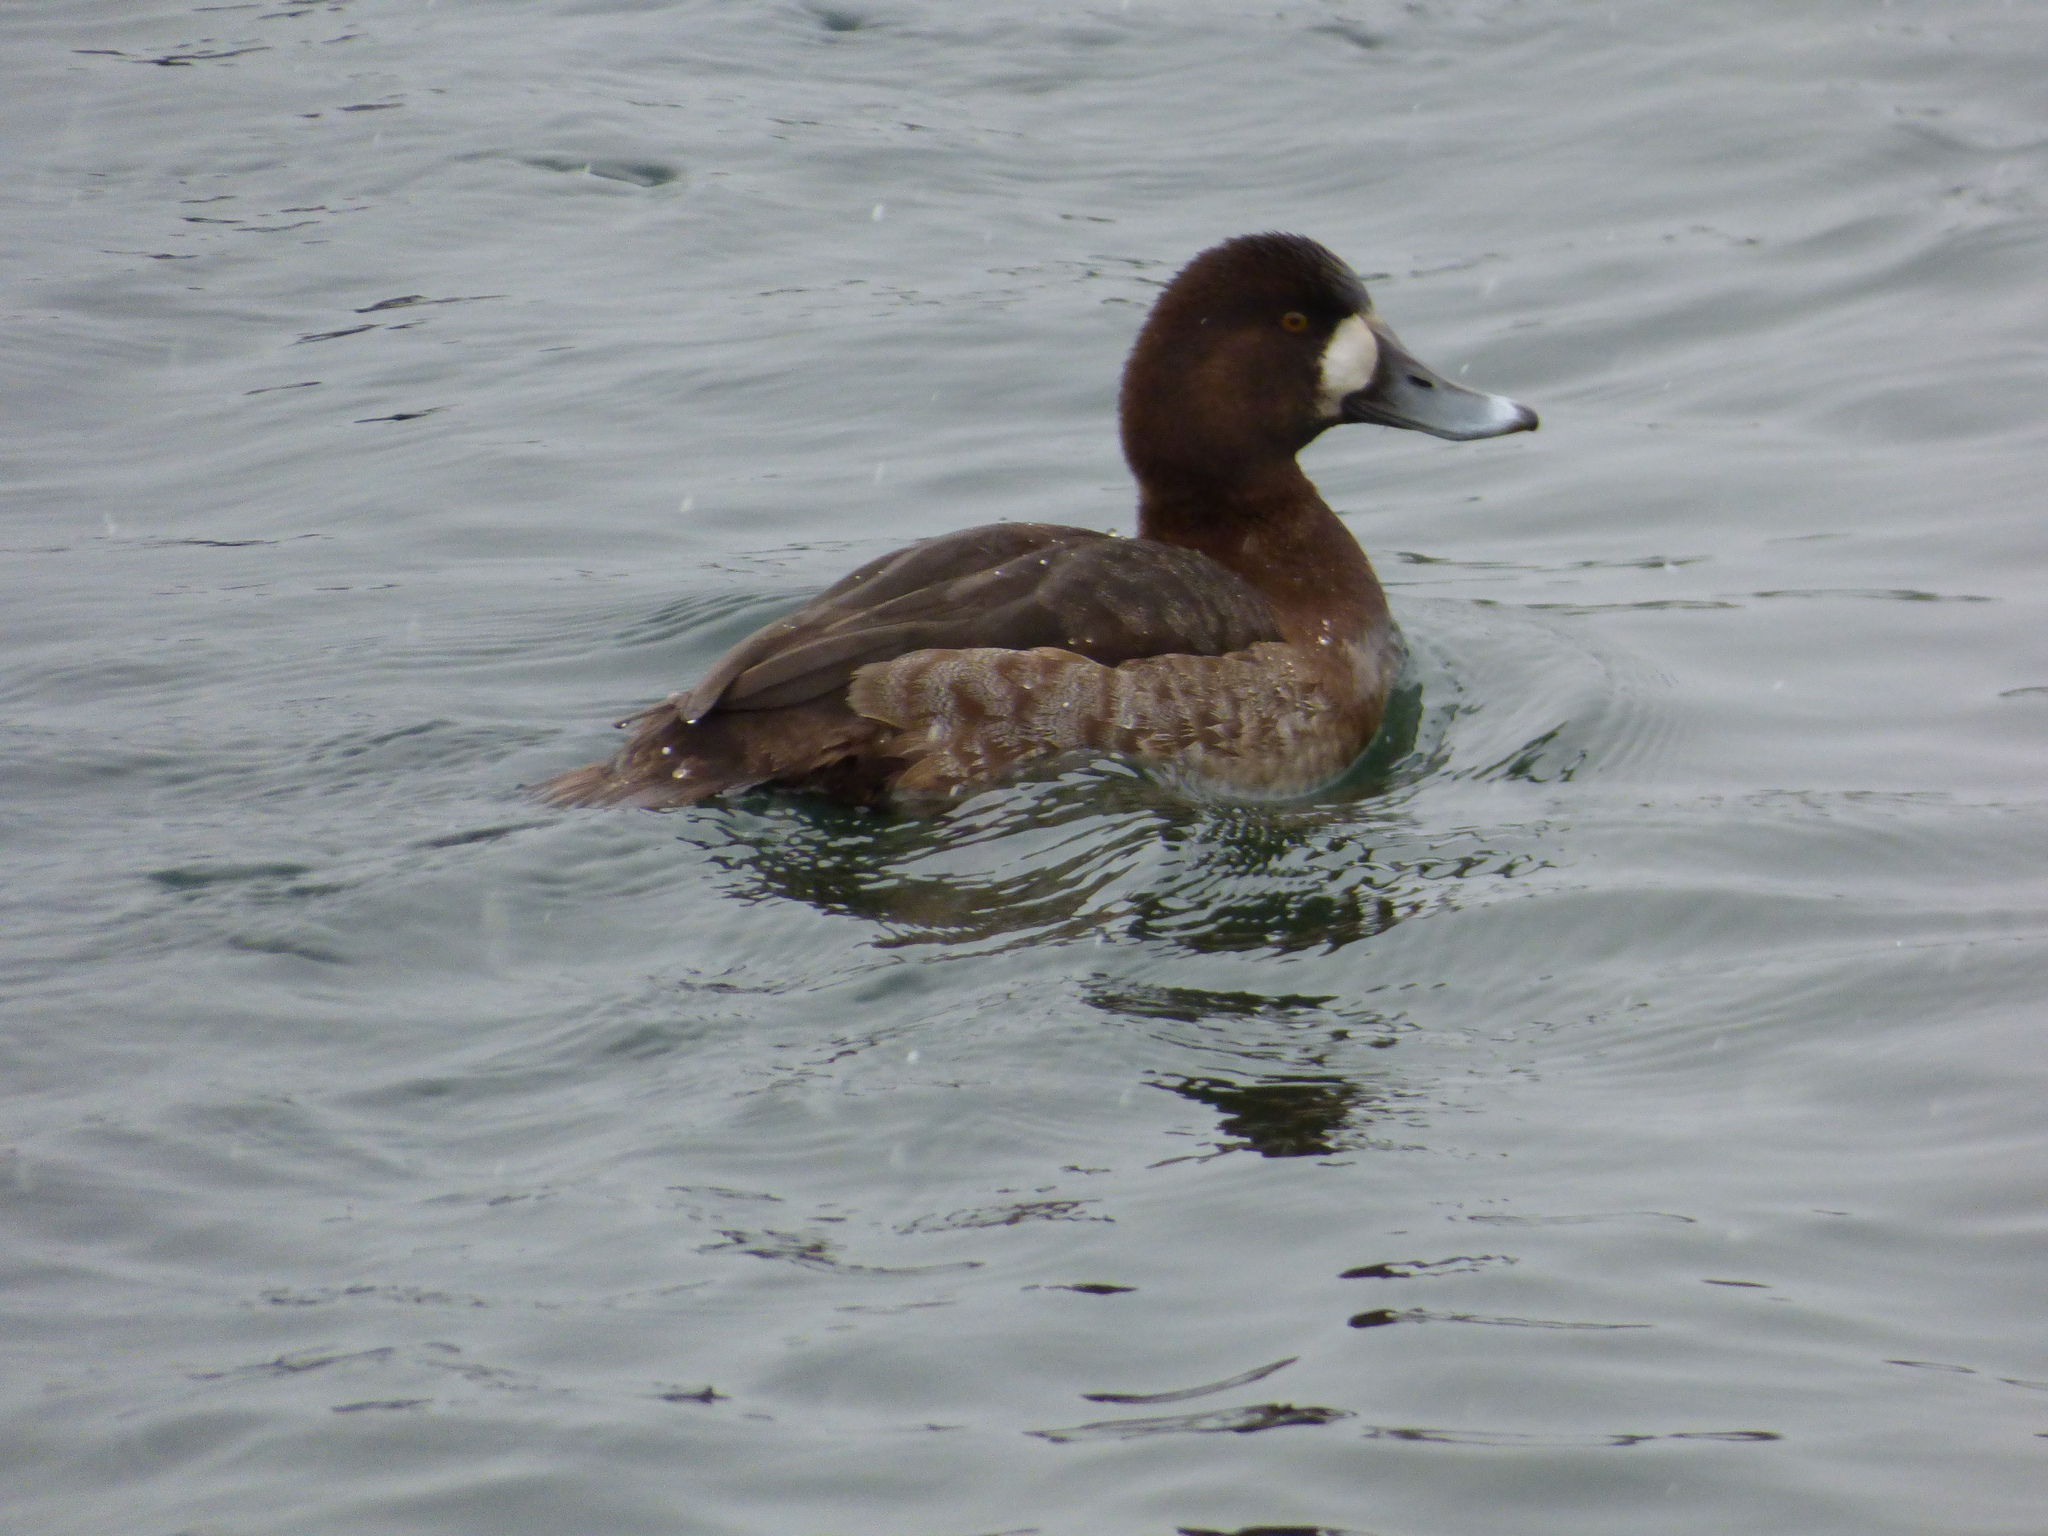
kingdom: Animalia
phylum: Chordata
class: Aves
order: Anseriformes
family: Anatidae
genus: Aythya
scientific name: Aythya marila
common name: Greater scaup
